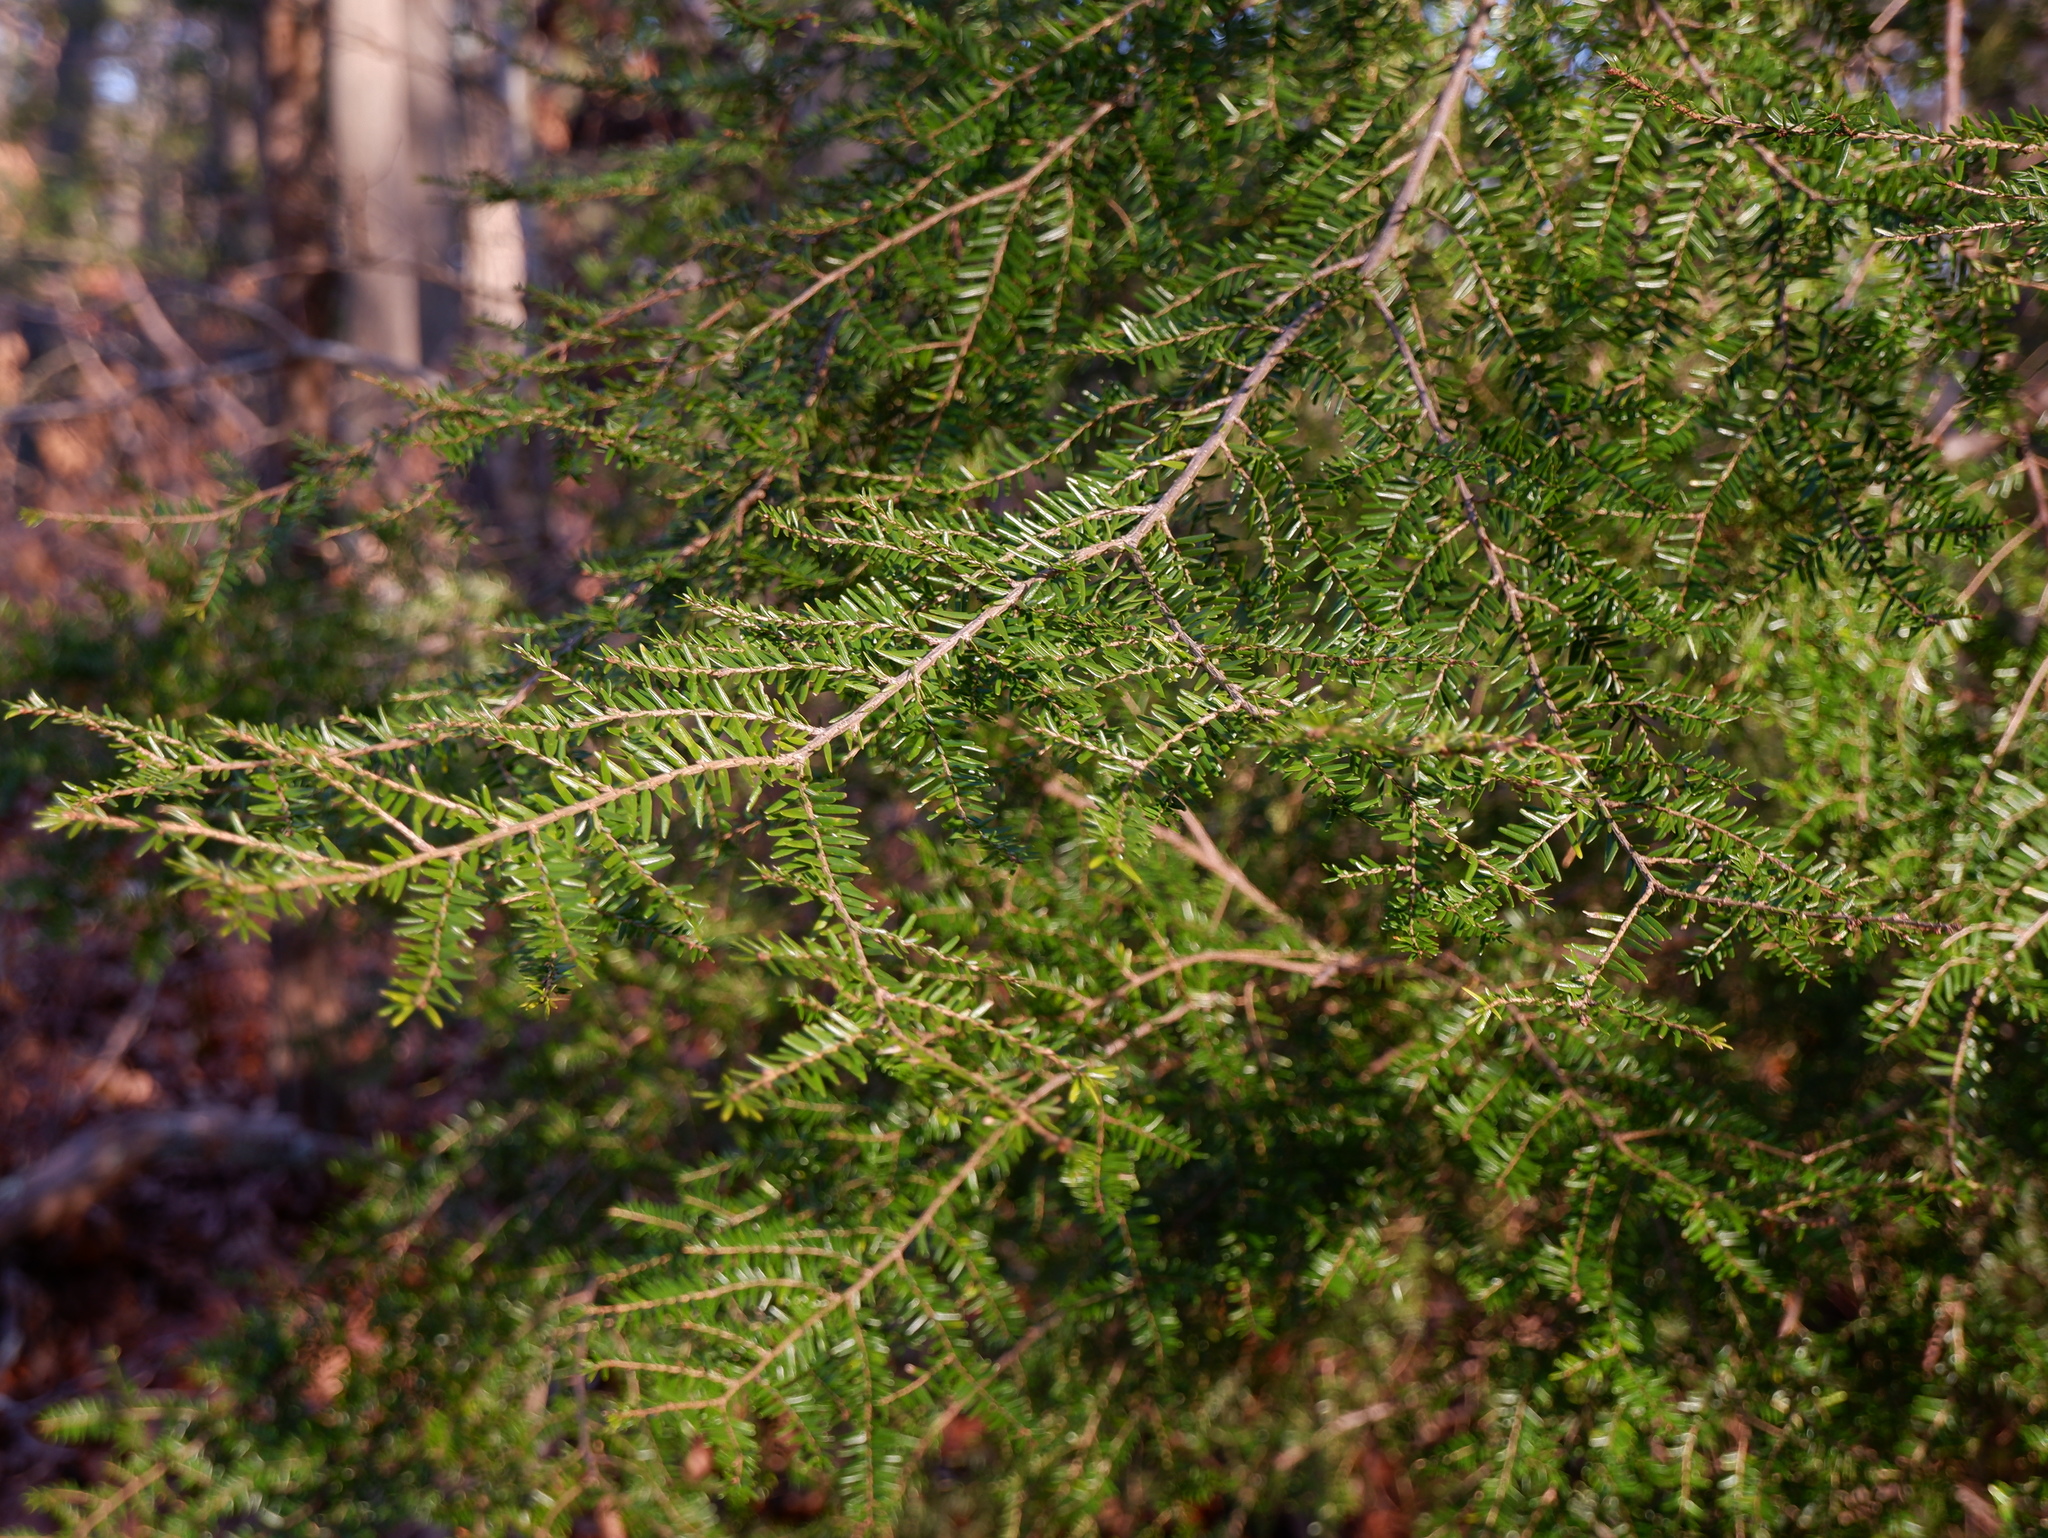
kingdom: Plantae
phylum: Tracheophyta
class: Pinopsida
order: Pinales
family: Pinaceae
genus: Tsuga
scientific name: Tsuga canadensis
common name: Eastern hemlock
